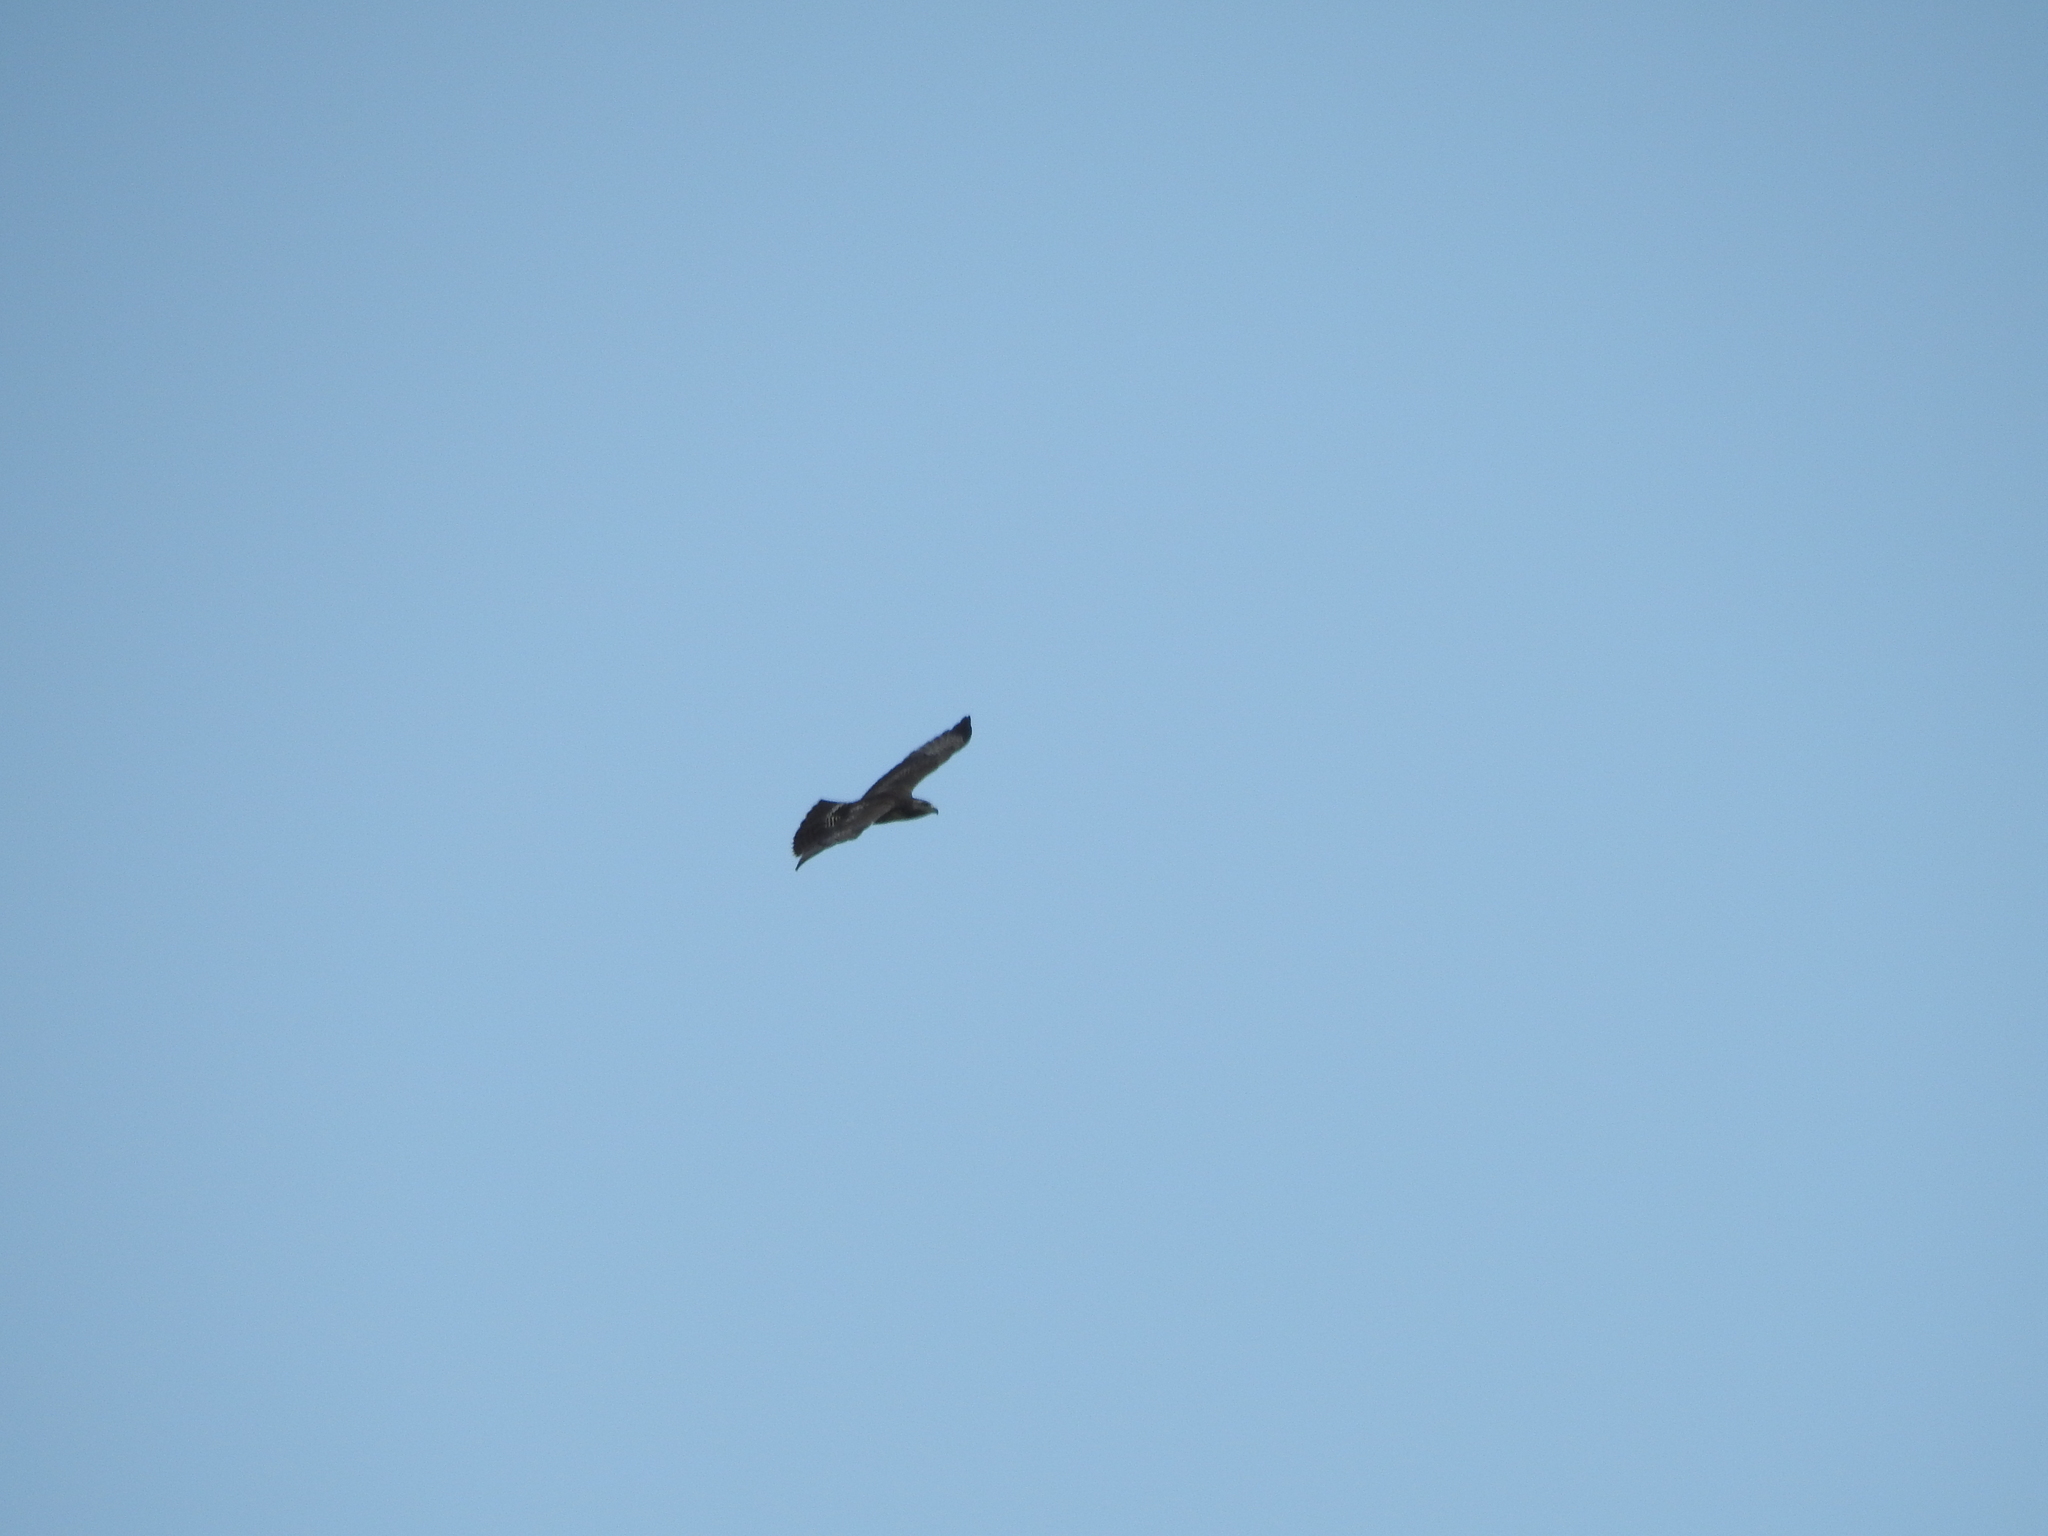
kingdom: Animalia
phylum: Chordata
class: Aves
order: Accipitriformes
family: Accipitridae
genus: Buteo
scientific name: Buteo jamaicensis
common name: Red-tailed hawk
